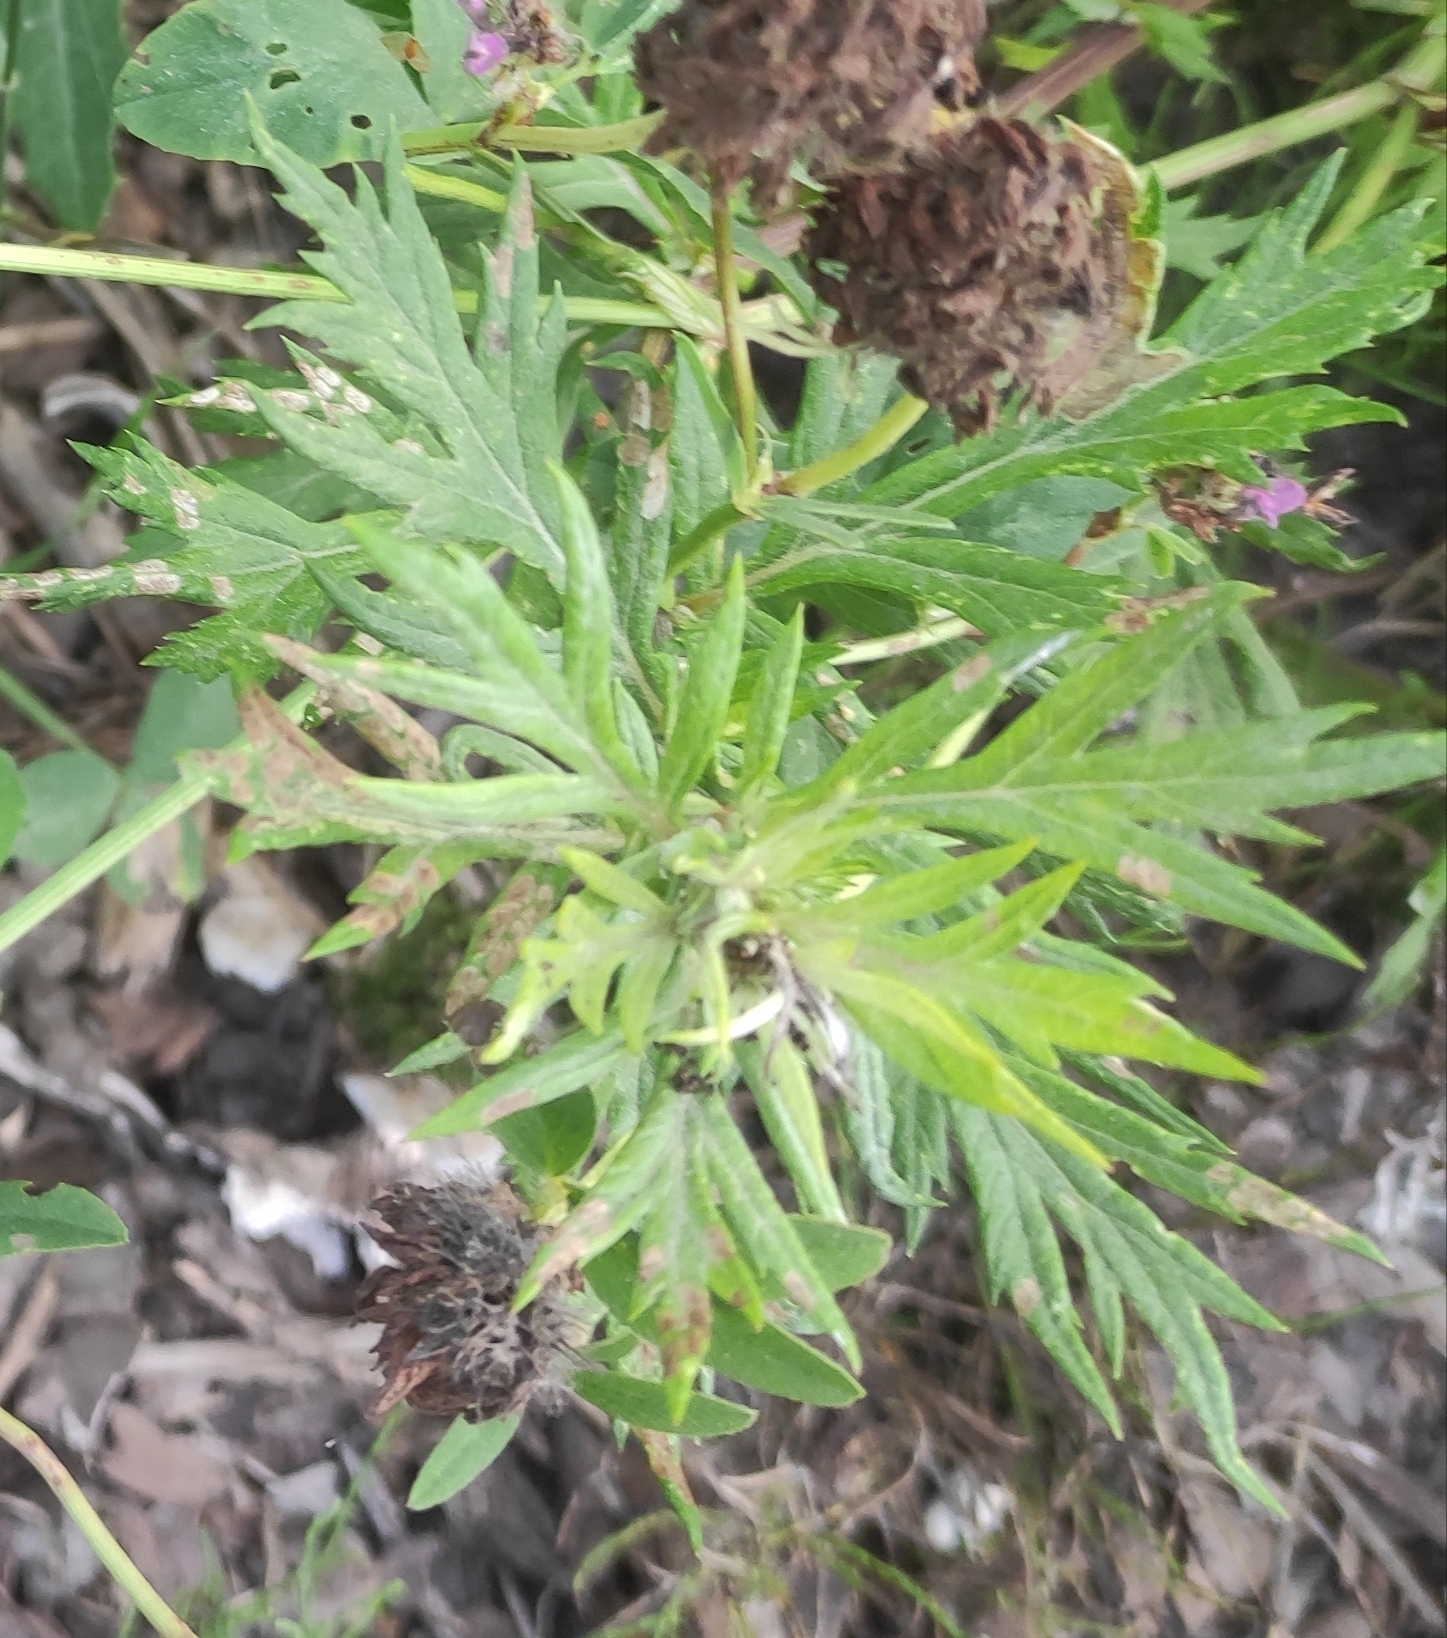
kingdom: Plantae
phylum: Tracheophyta
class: Magnoliopsida
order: Asterales
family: Asteraceae
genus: Artemisia
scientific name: Artemisia vulgaris
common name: Mugwort
